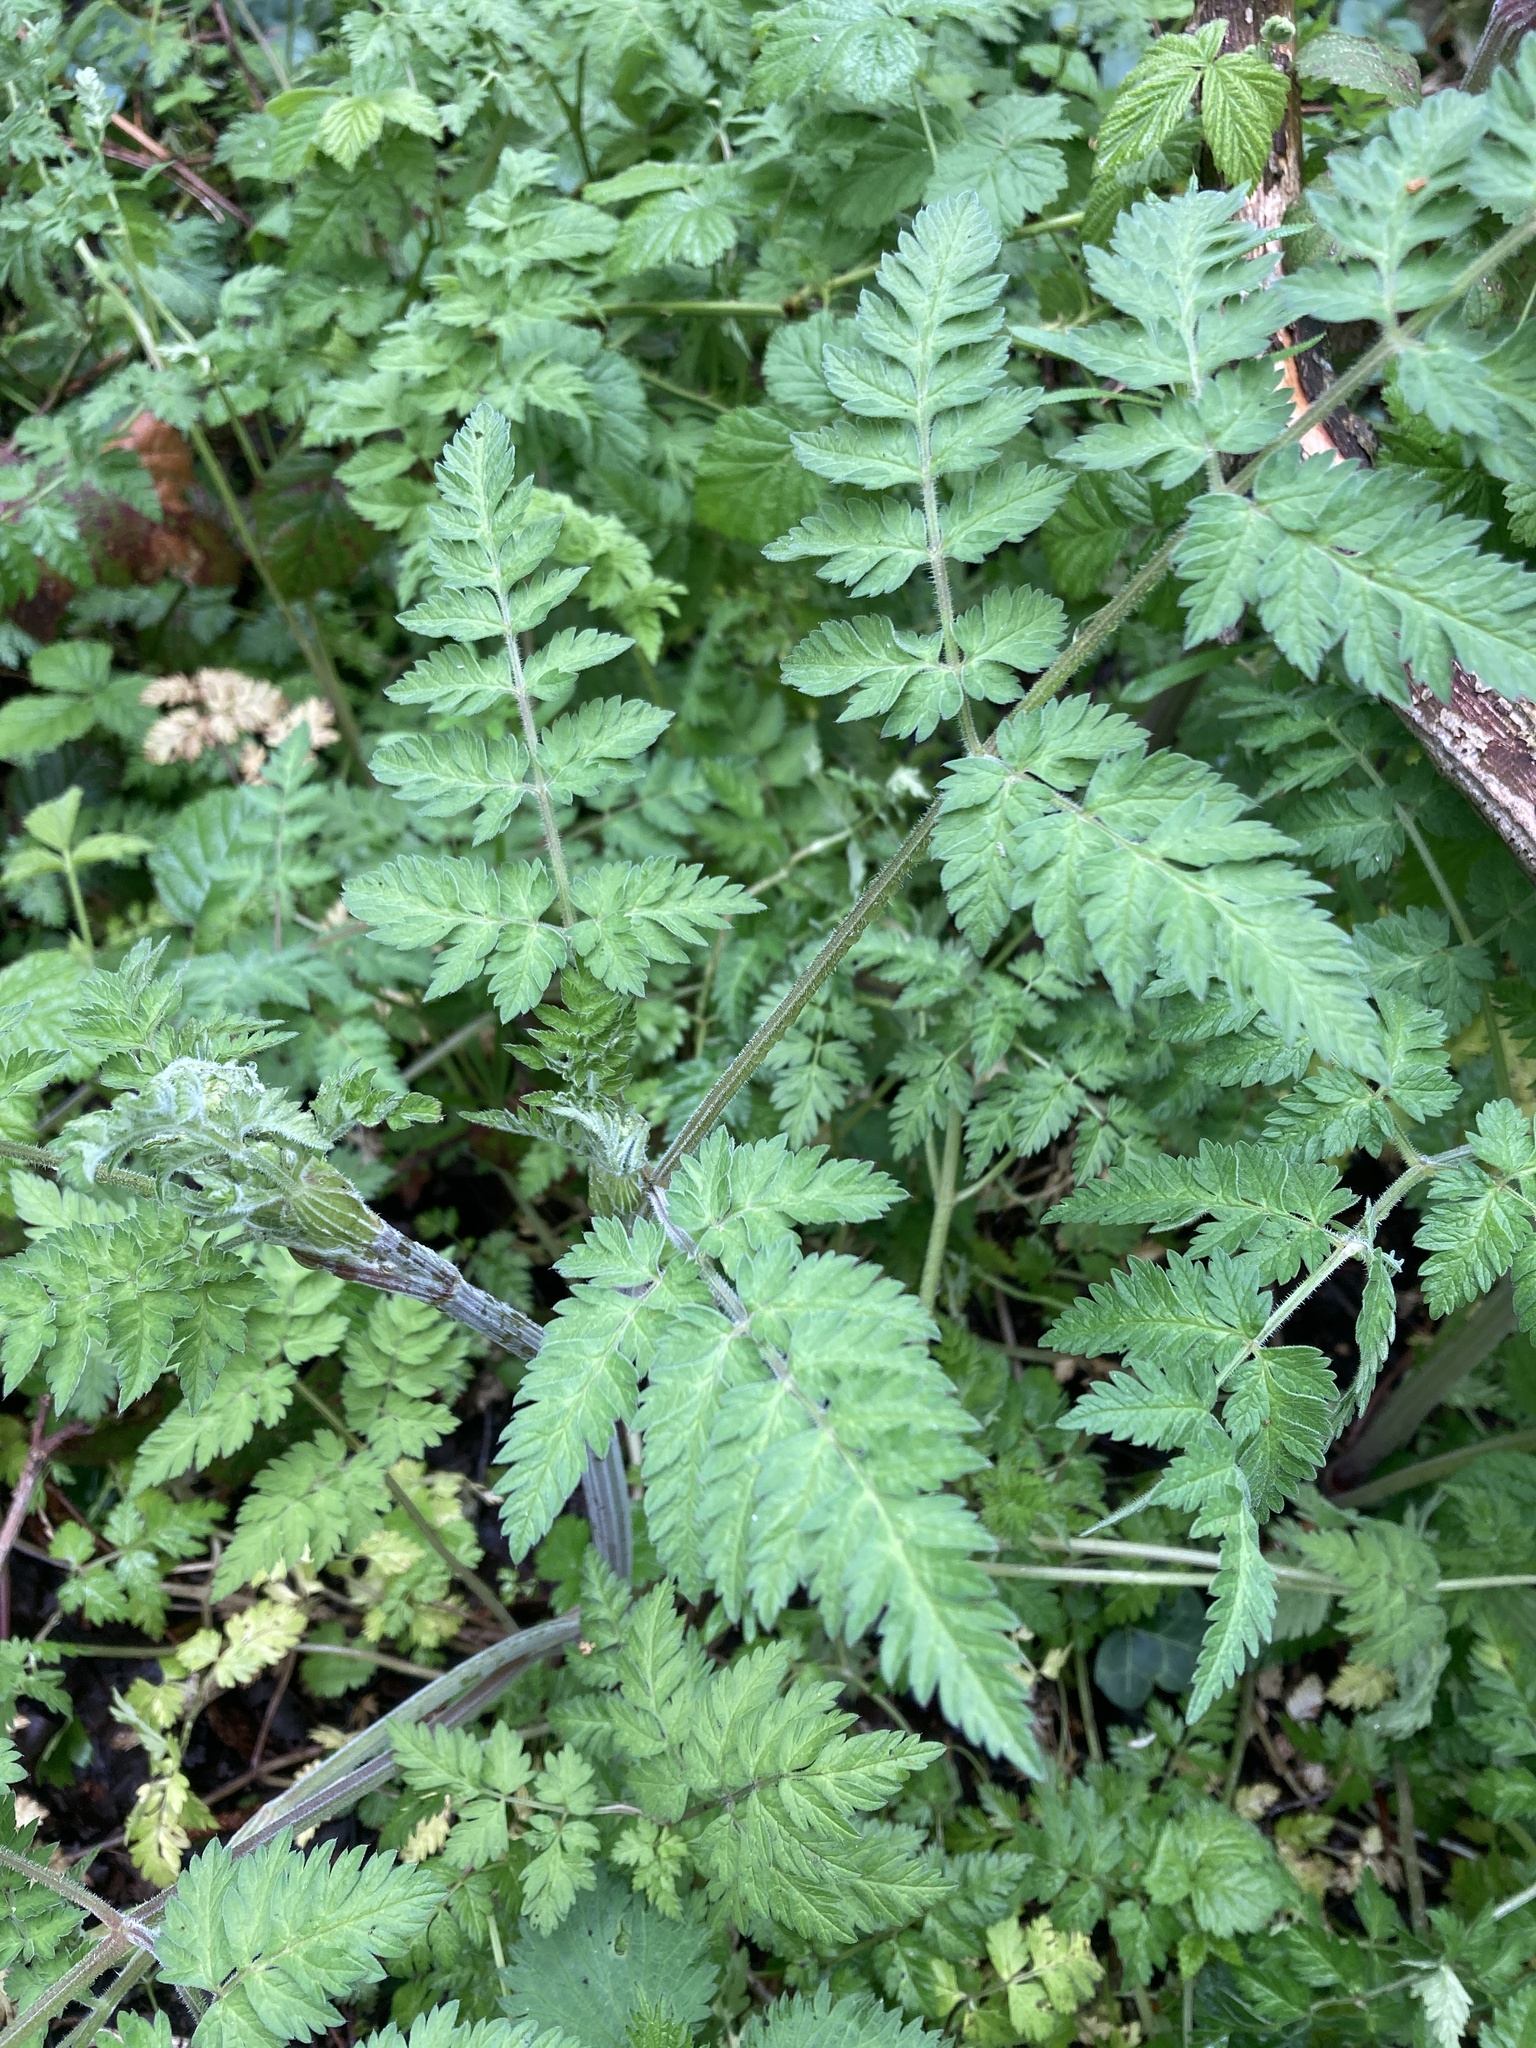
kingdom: Plantae
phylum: Tracheophyta
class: Magnoliopsida
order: Apiales
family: Apiaceae
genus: Anthriscus
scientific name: Anthriscus sylvestris
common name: Cow parsley
